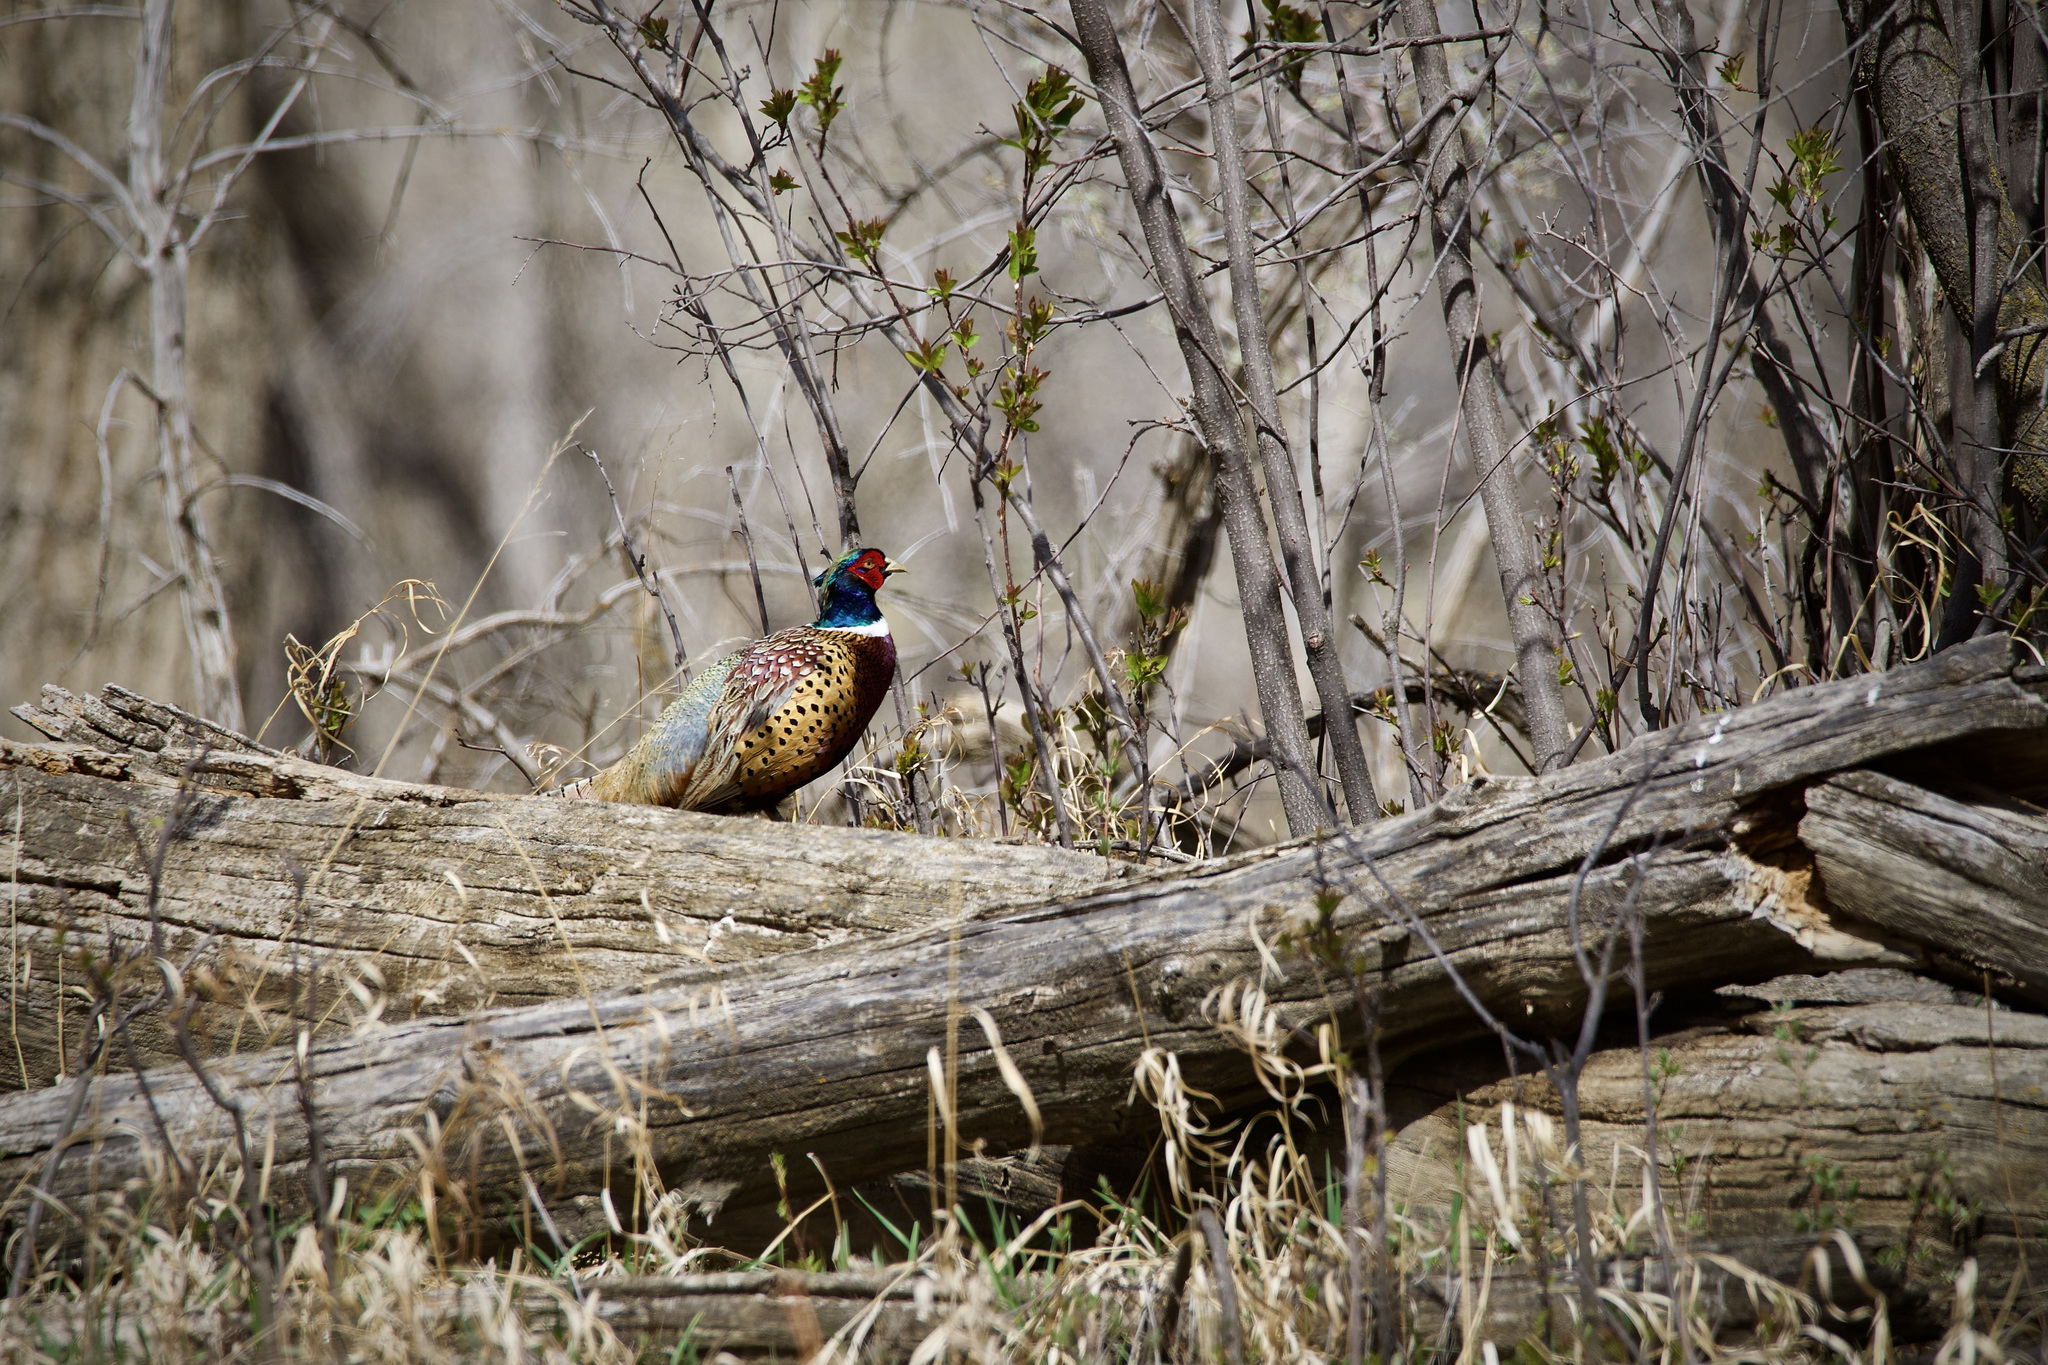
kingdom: Animalia
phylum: Chordata
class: Aves
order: Galliformes
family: Phasianidae
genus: Phasianus
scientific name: Phasianus colchicus
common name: Common pheasant
